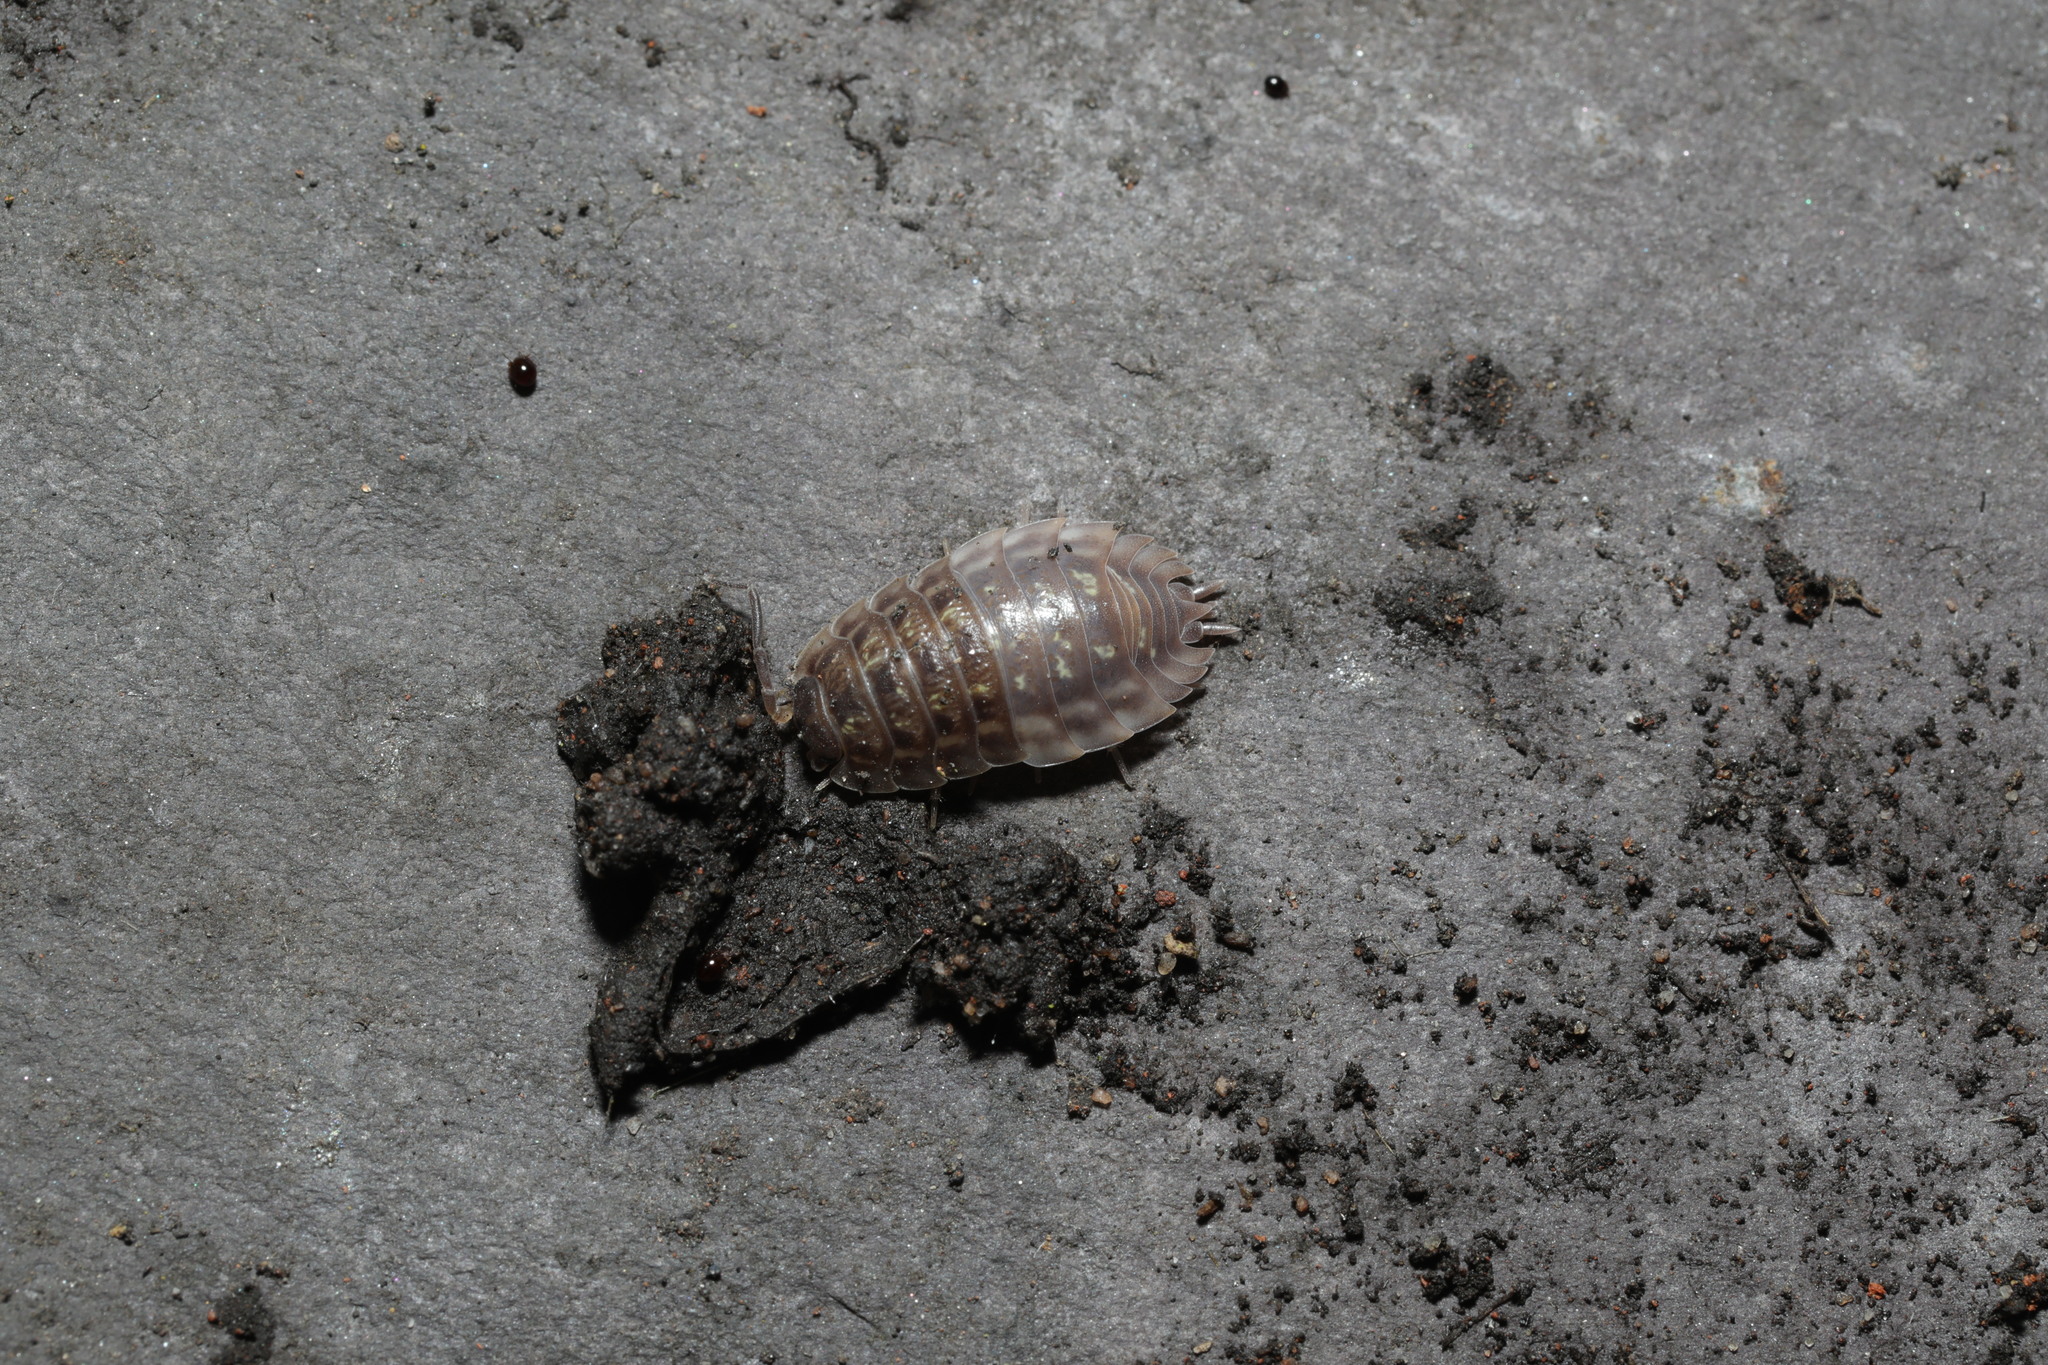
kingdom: Animalia
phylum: Arthropoda
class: Malacostraca
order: Isopoda
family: Oniscidae
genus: Oniscus
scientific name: Oniscus asellus
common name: Common shiny woodlouse
